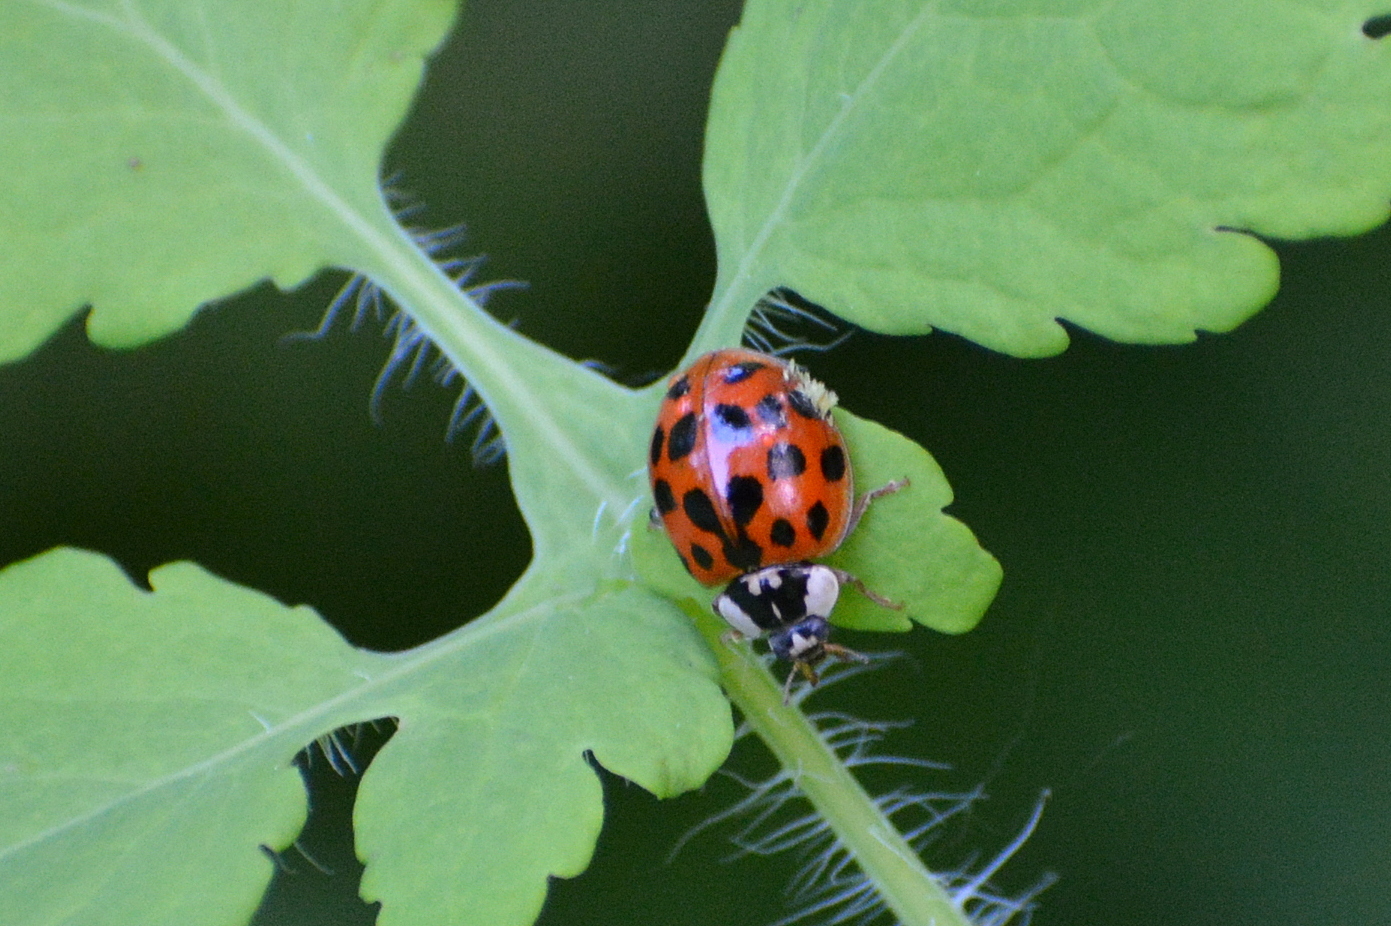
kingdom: Animalia
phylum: Arthropoda
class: Insecta
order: Coleoptera
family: Coccinellidae
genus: Harmonia
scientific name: Harmonia axyridis
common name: Harlequin ladybird
